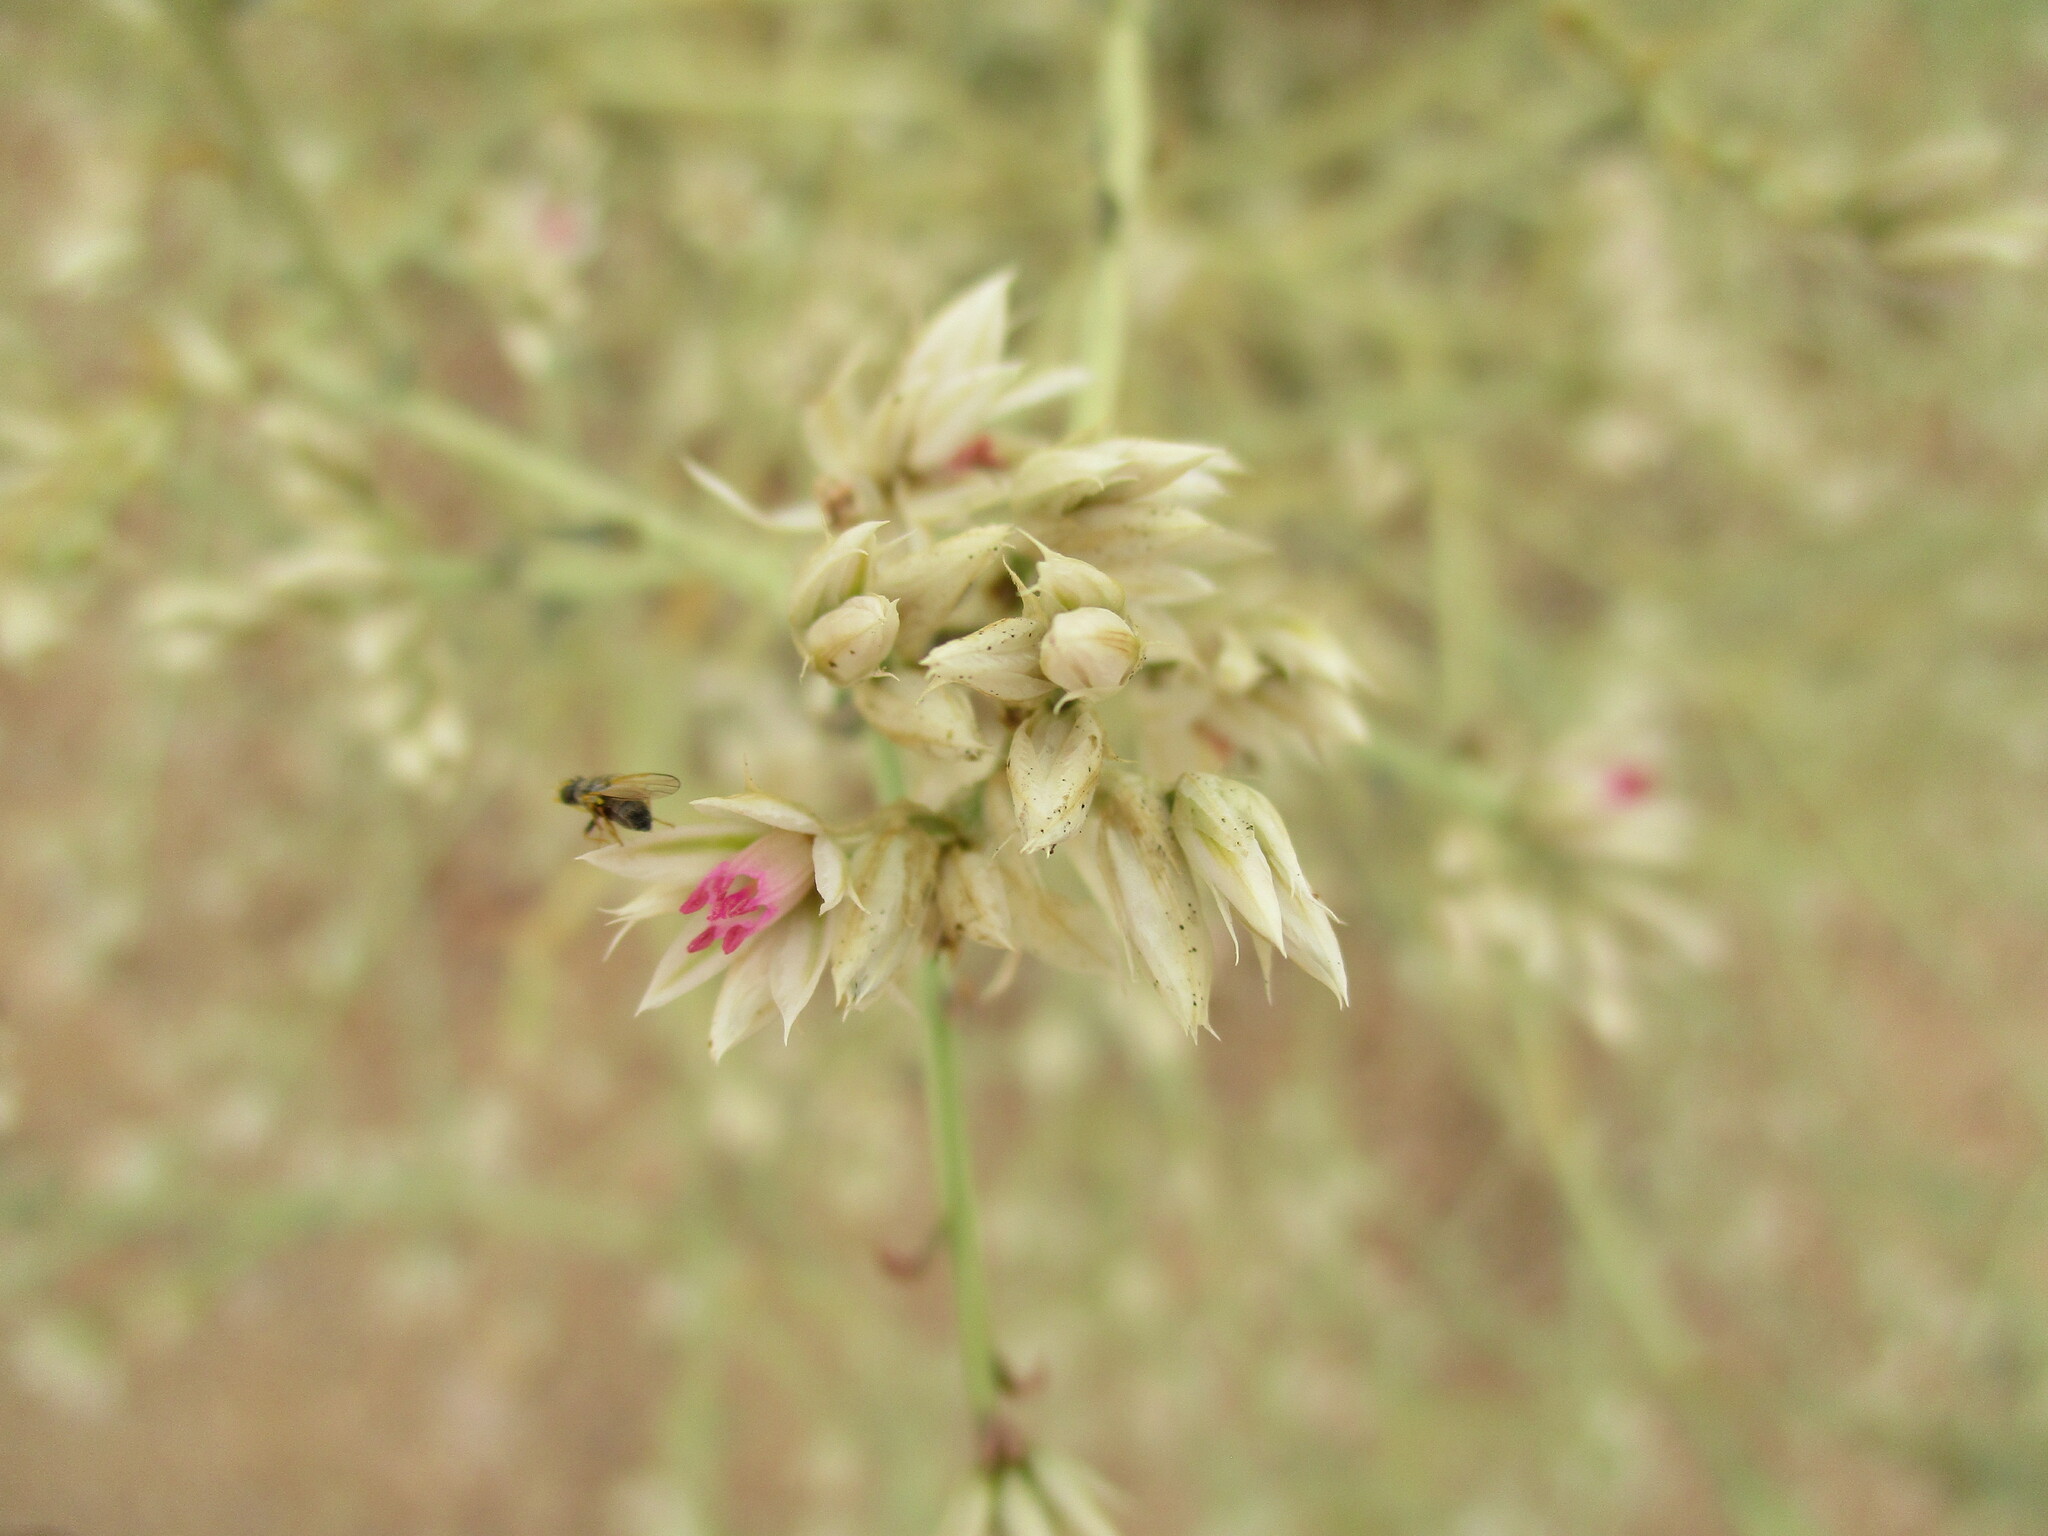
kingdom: Plantae
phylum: Tracheophyta
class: Magnoliopsida
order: Caryophyllales
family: Amaranthaceae
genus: Hermbstaedtia
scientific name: Hermbstaedtia spathulifolia
